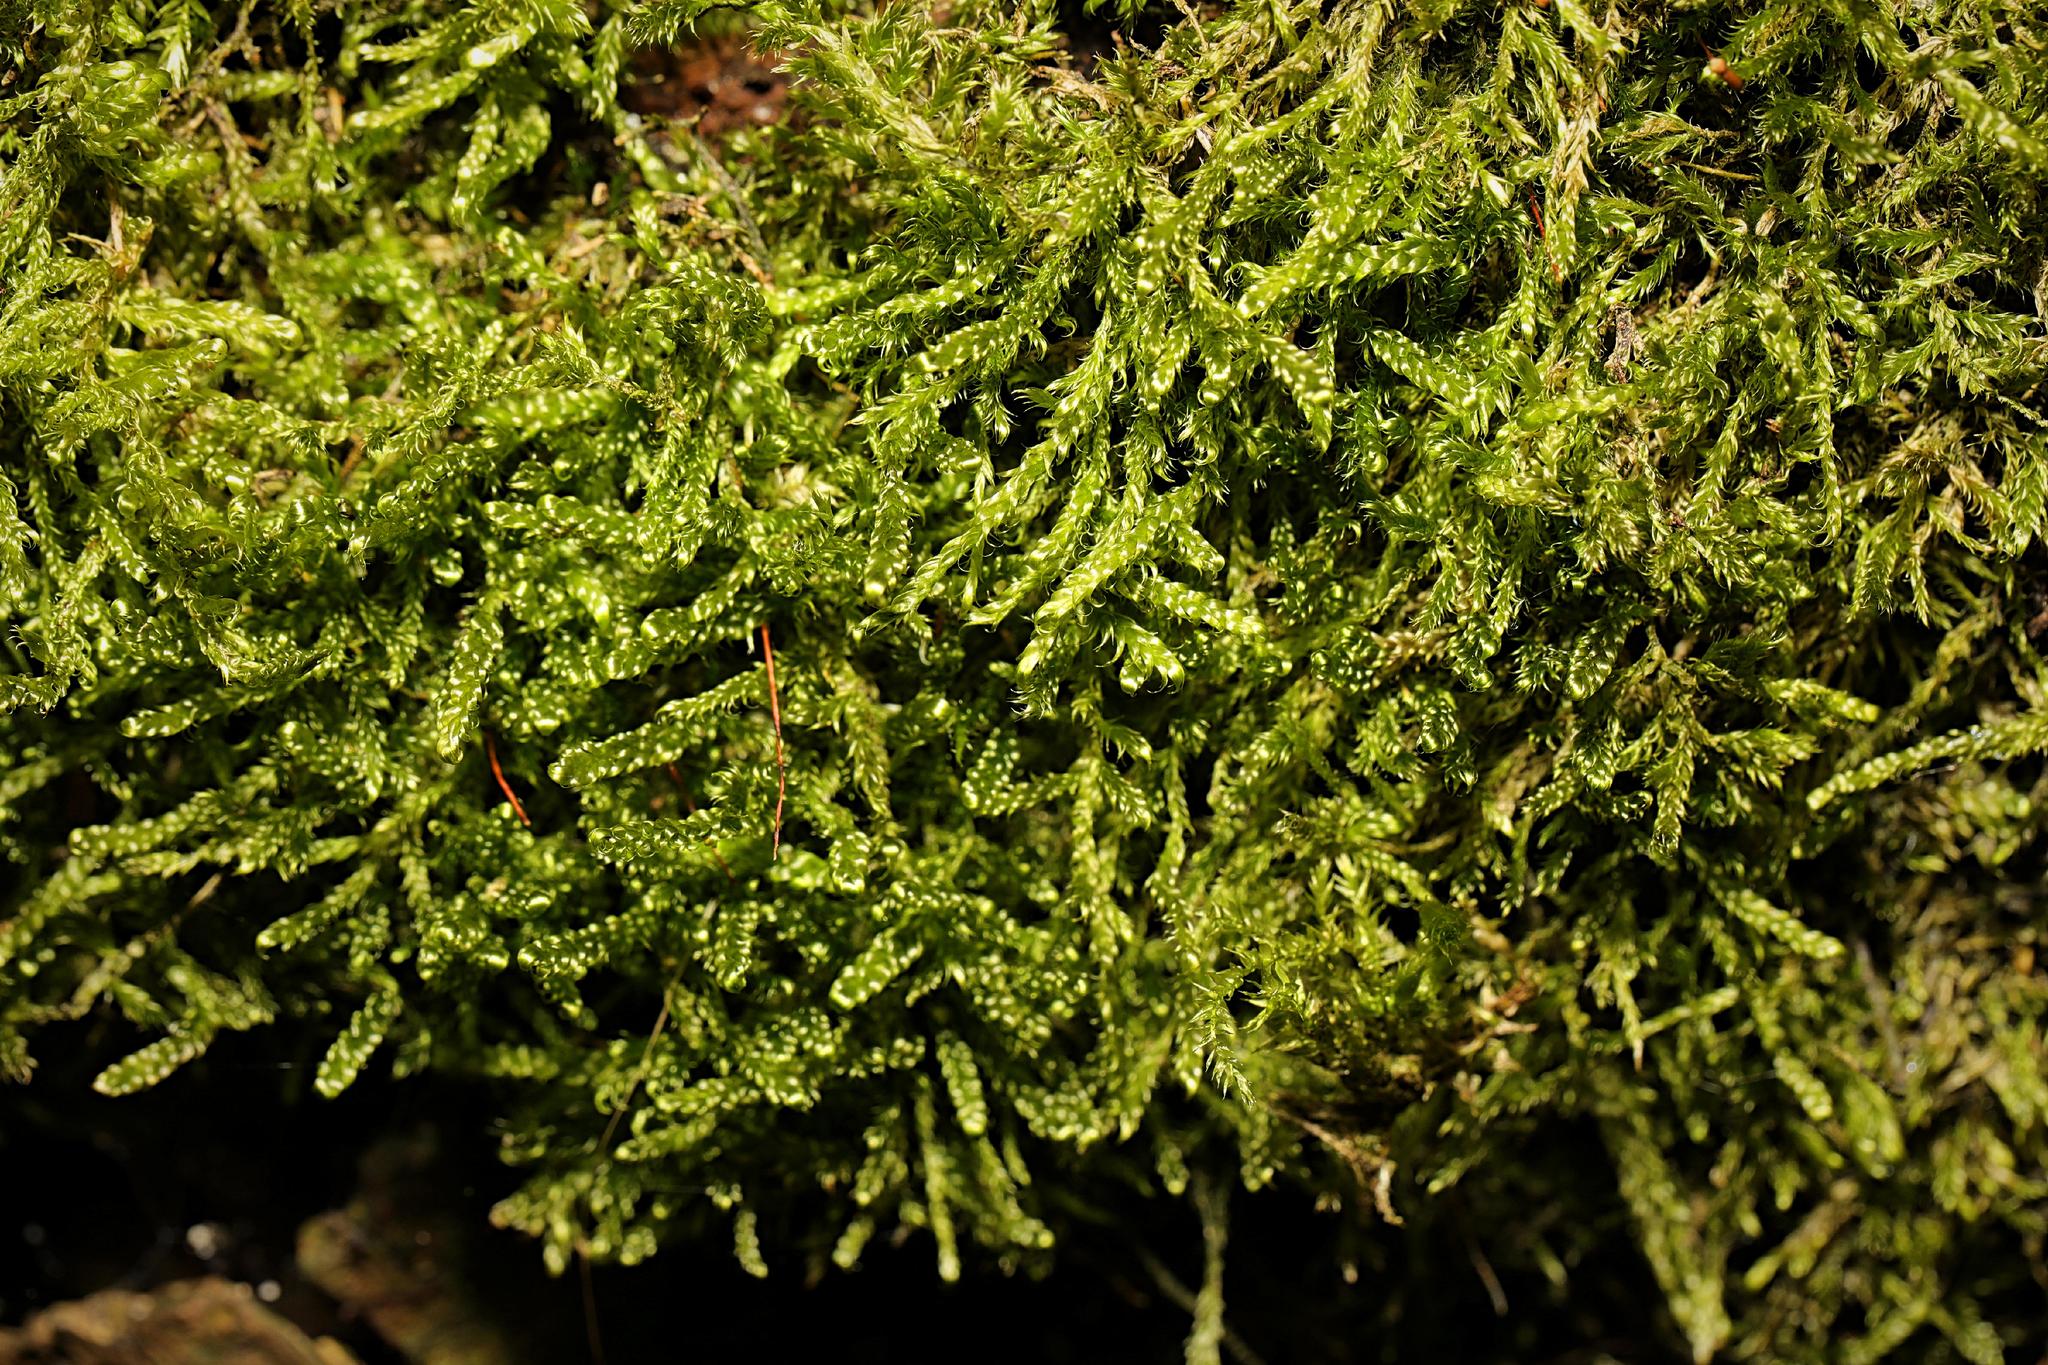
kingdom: Plantae
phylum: Bryophyta
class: Bryopsida
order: Hypnales
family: Hypnaceae
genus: Hypnum
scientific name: Hypnum cupressiforme
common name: Cypress-leaved plait-moss
